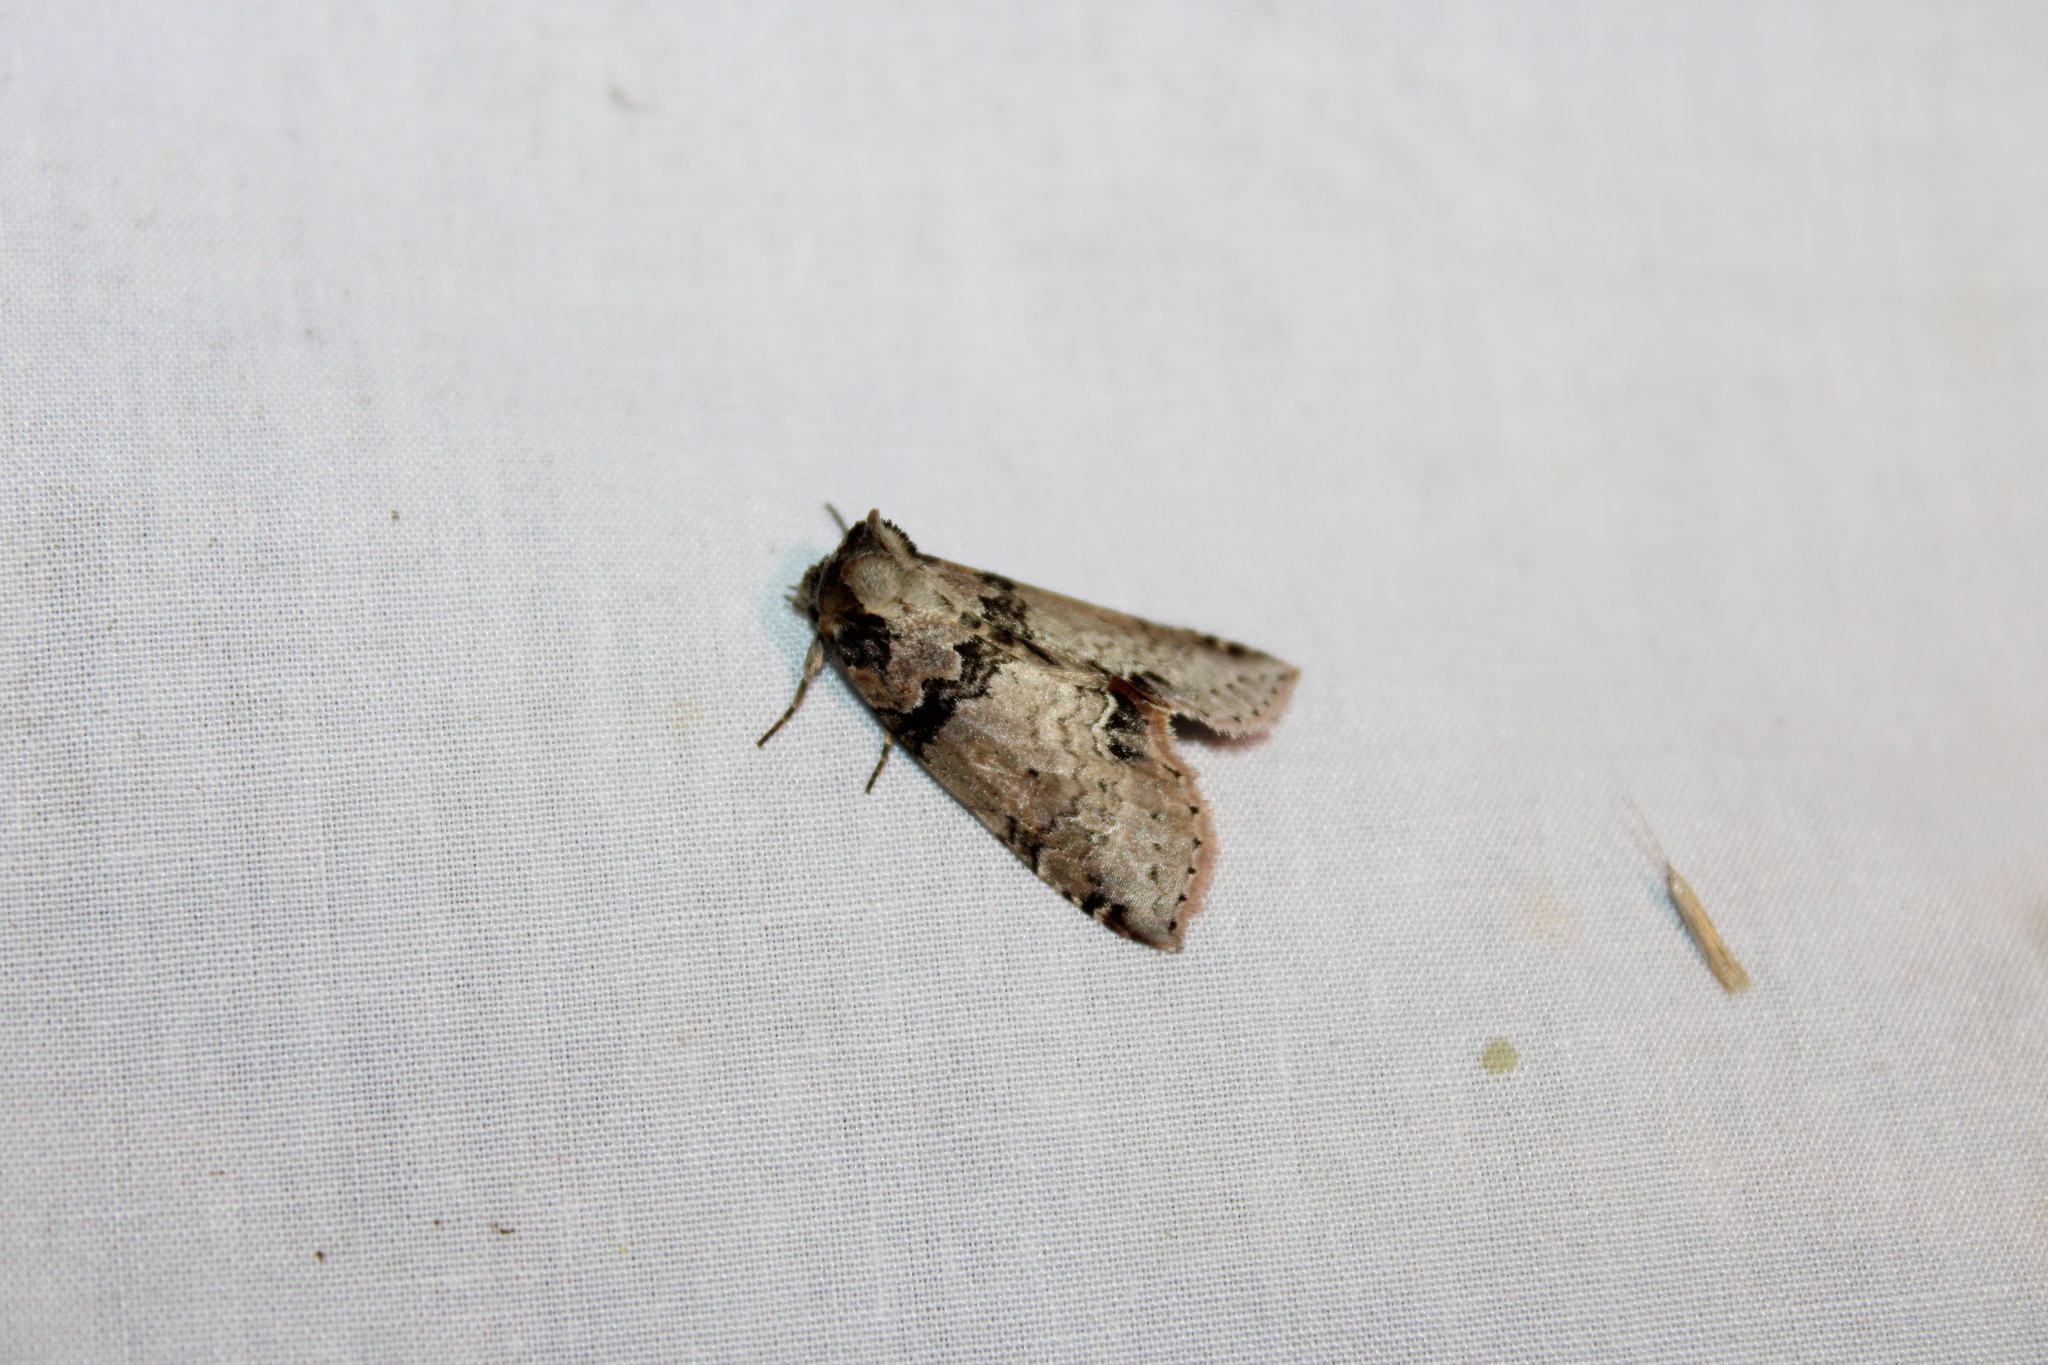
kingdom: Animalia
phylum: Arthropoda
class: Insecta
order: Lepidoptera
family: Drepanidae
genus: Pseudothyatira
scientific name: Pseudothyatira cymatophoroides
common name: Tufted thyatirid moth
